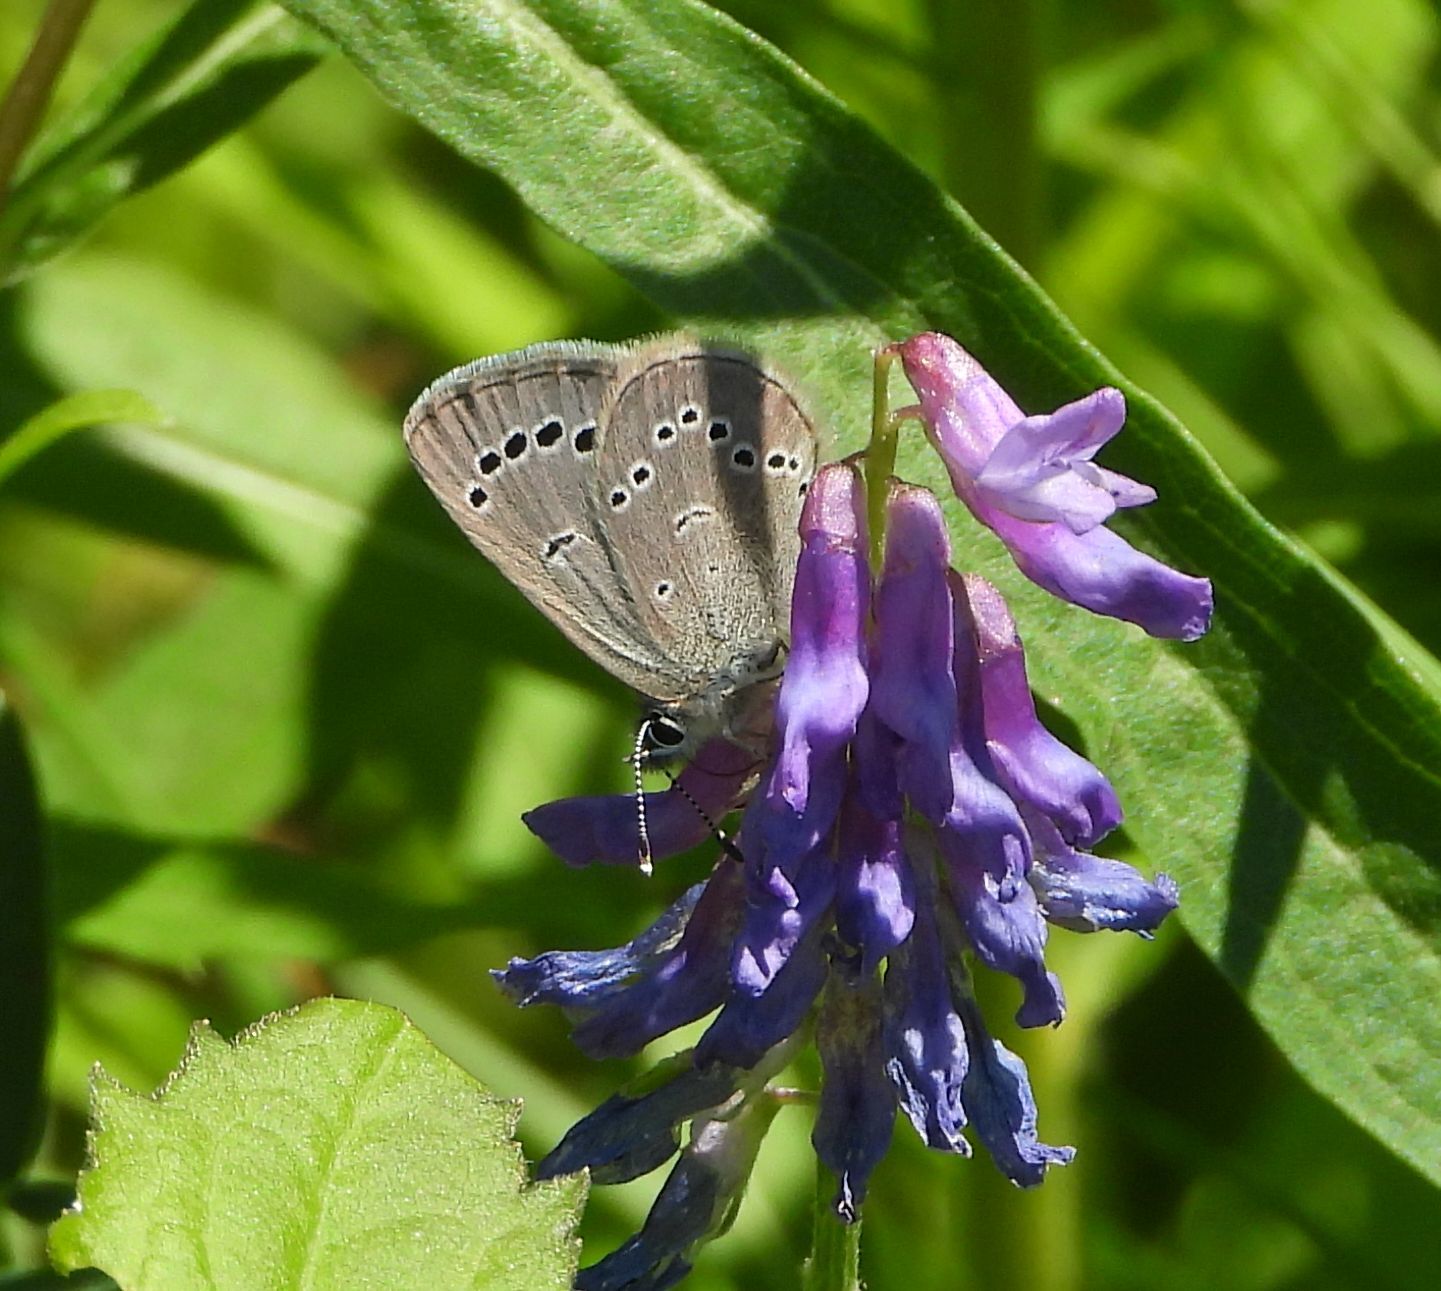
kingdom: Animalia
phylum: Arthropoda
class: Insecta
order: Lepidoptera
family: Lycaenidae
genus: Glaucopsyche
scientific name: Glaucopsyche lygdamus
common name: Silvery blue
